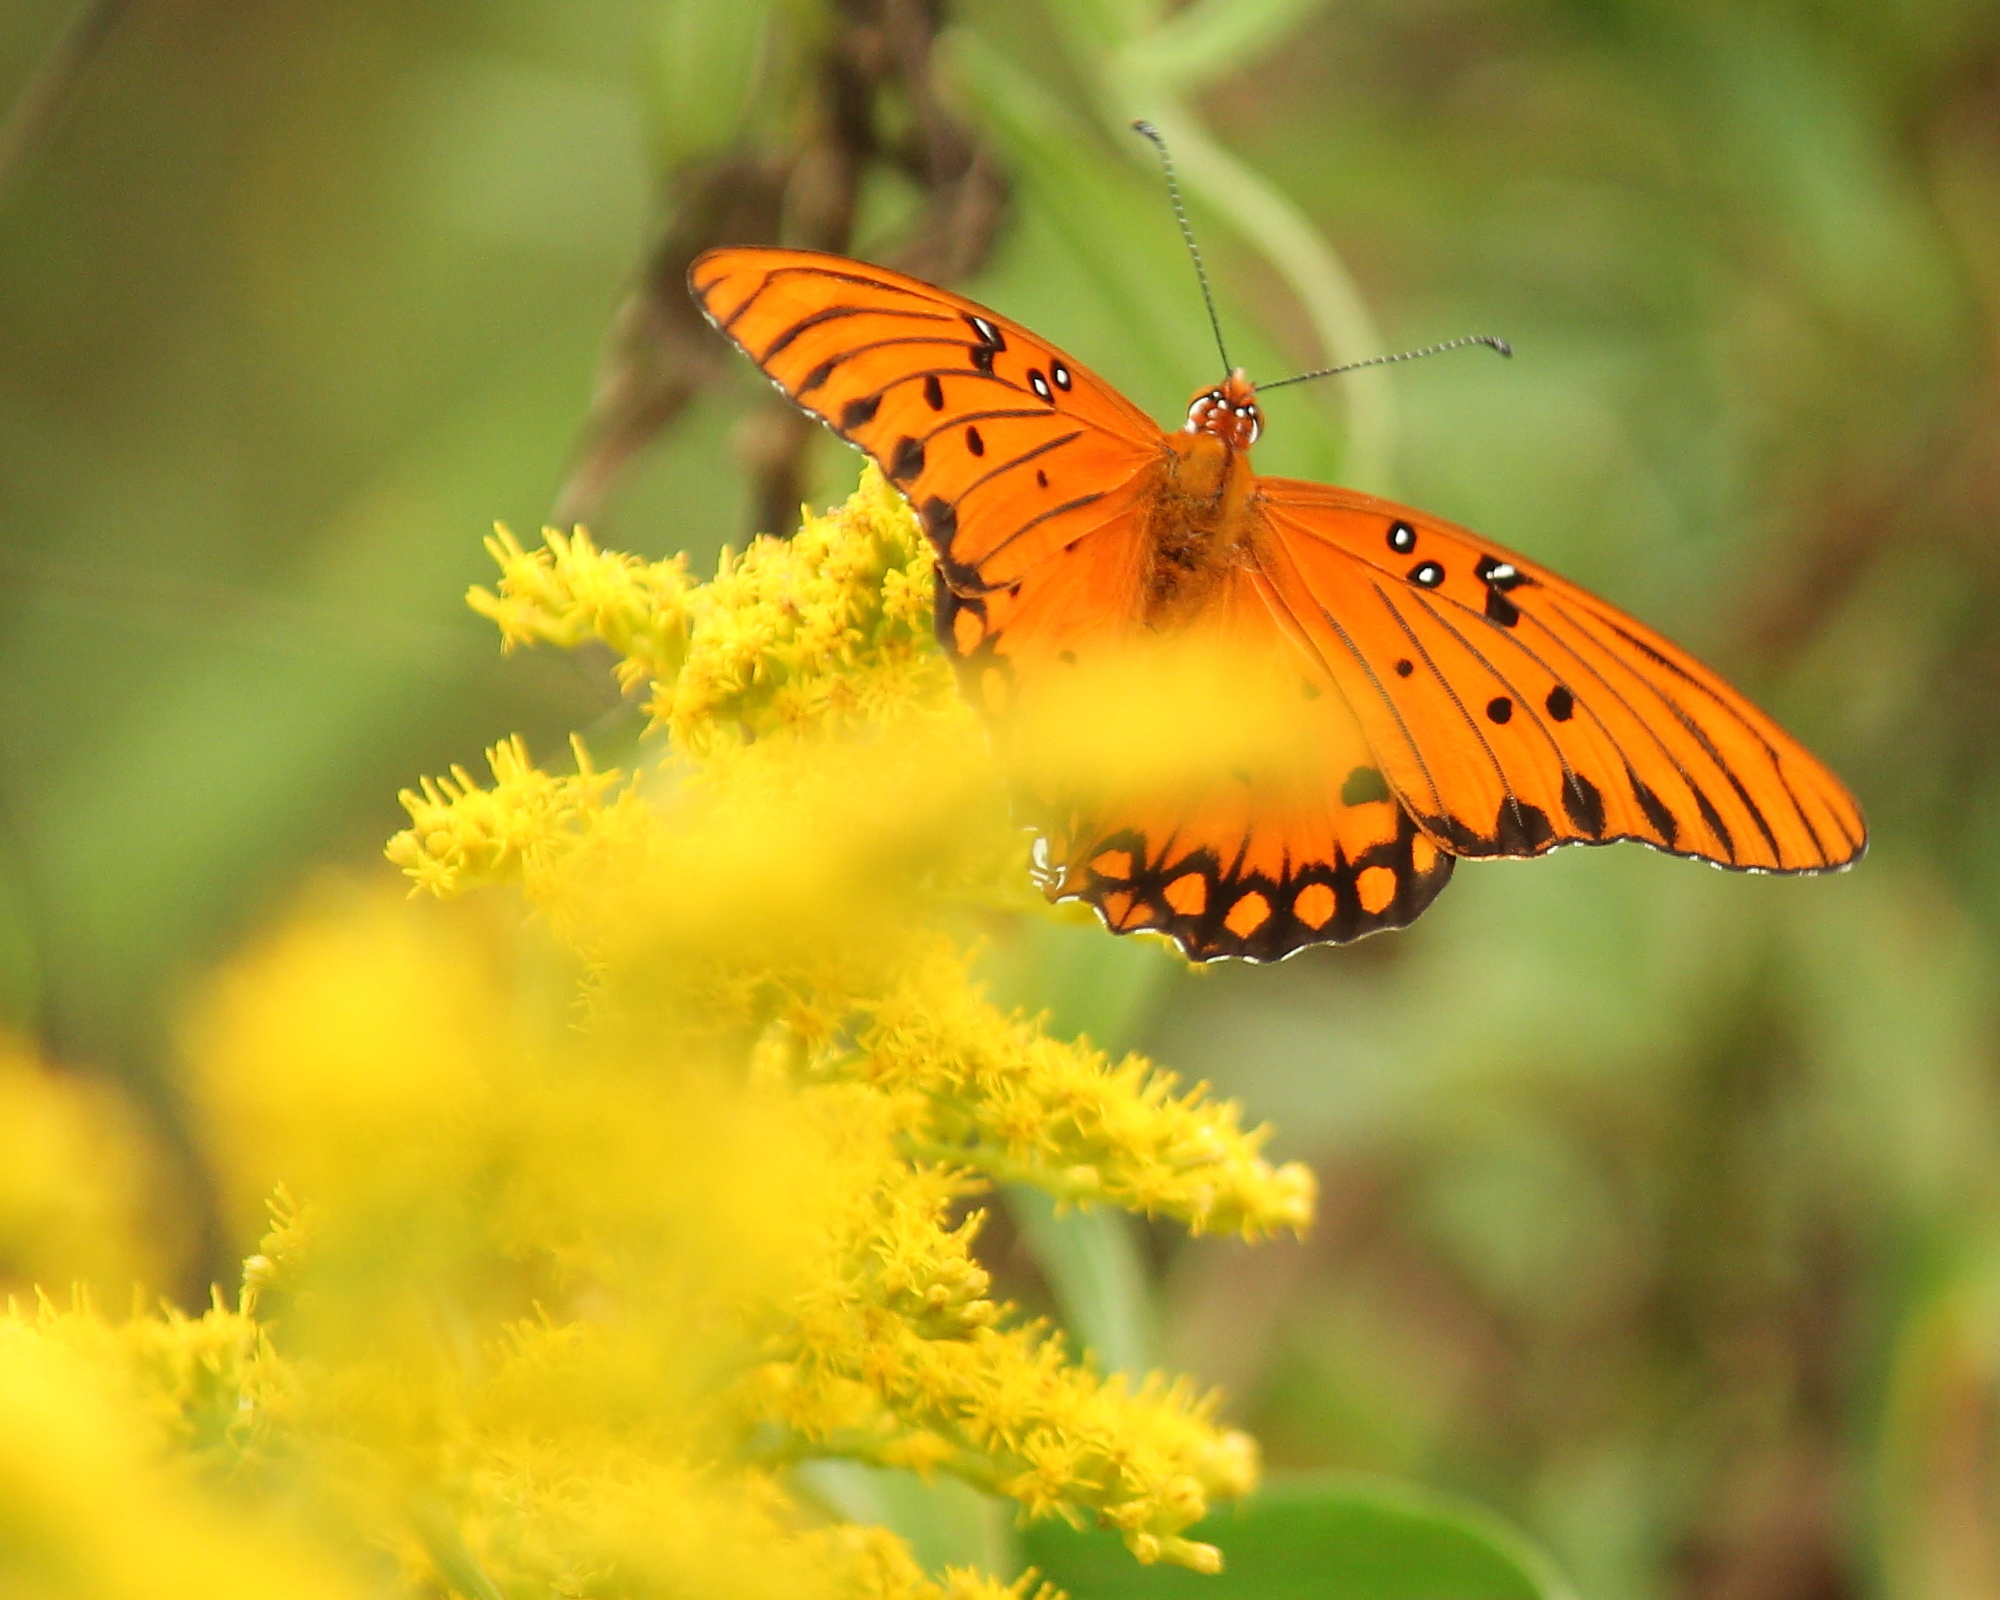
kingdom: Animalia
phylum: Arthropoda
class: Insecta
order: Lepidoptera
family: Nymphalidae
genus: Dione
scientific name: Dione vanillae
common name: Gulf fritillary
